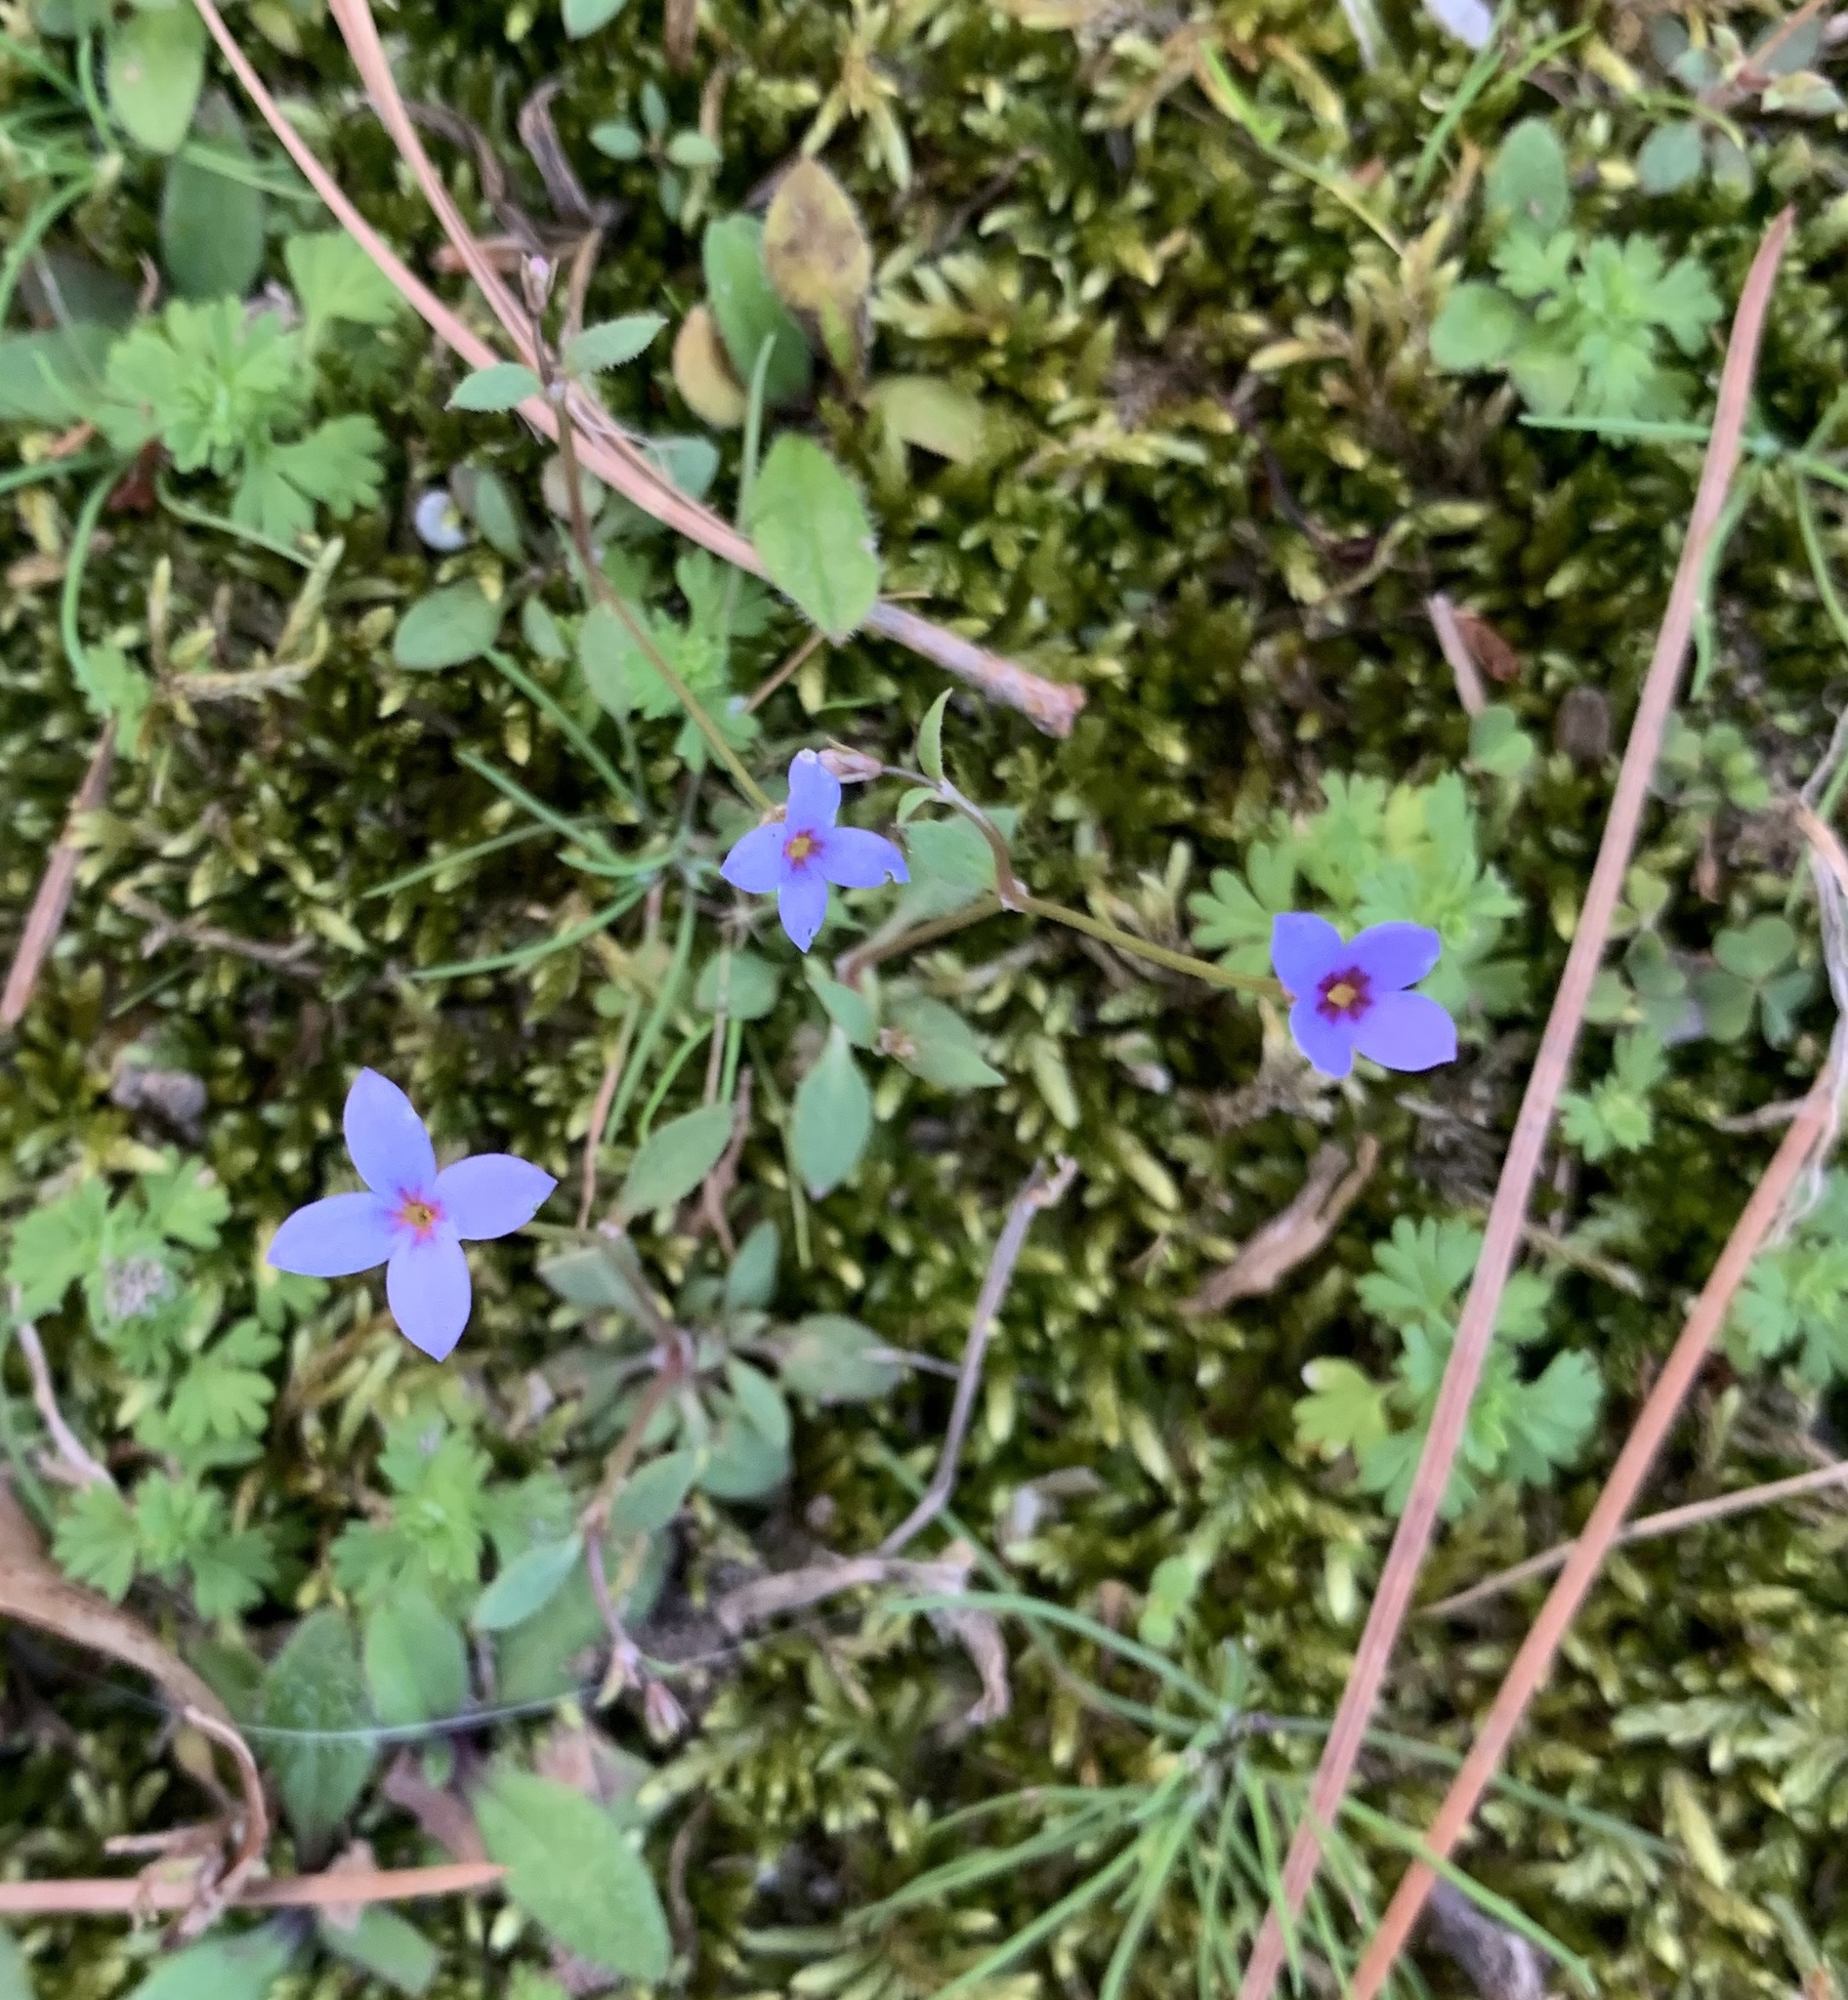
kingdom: Plantae
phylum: Tracheophyta
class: Magnoliopsida
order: Gentianales
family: Rubiaceae
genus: Houstonia
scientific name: Houstonia pusilla
